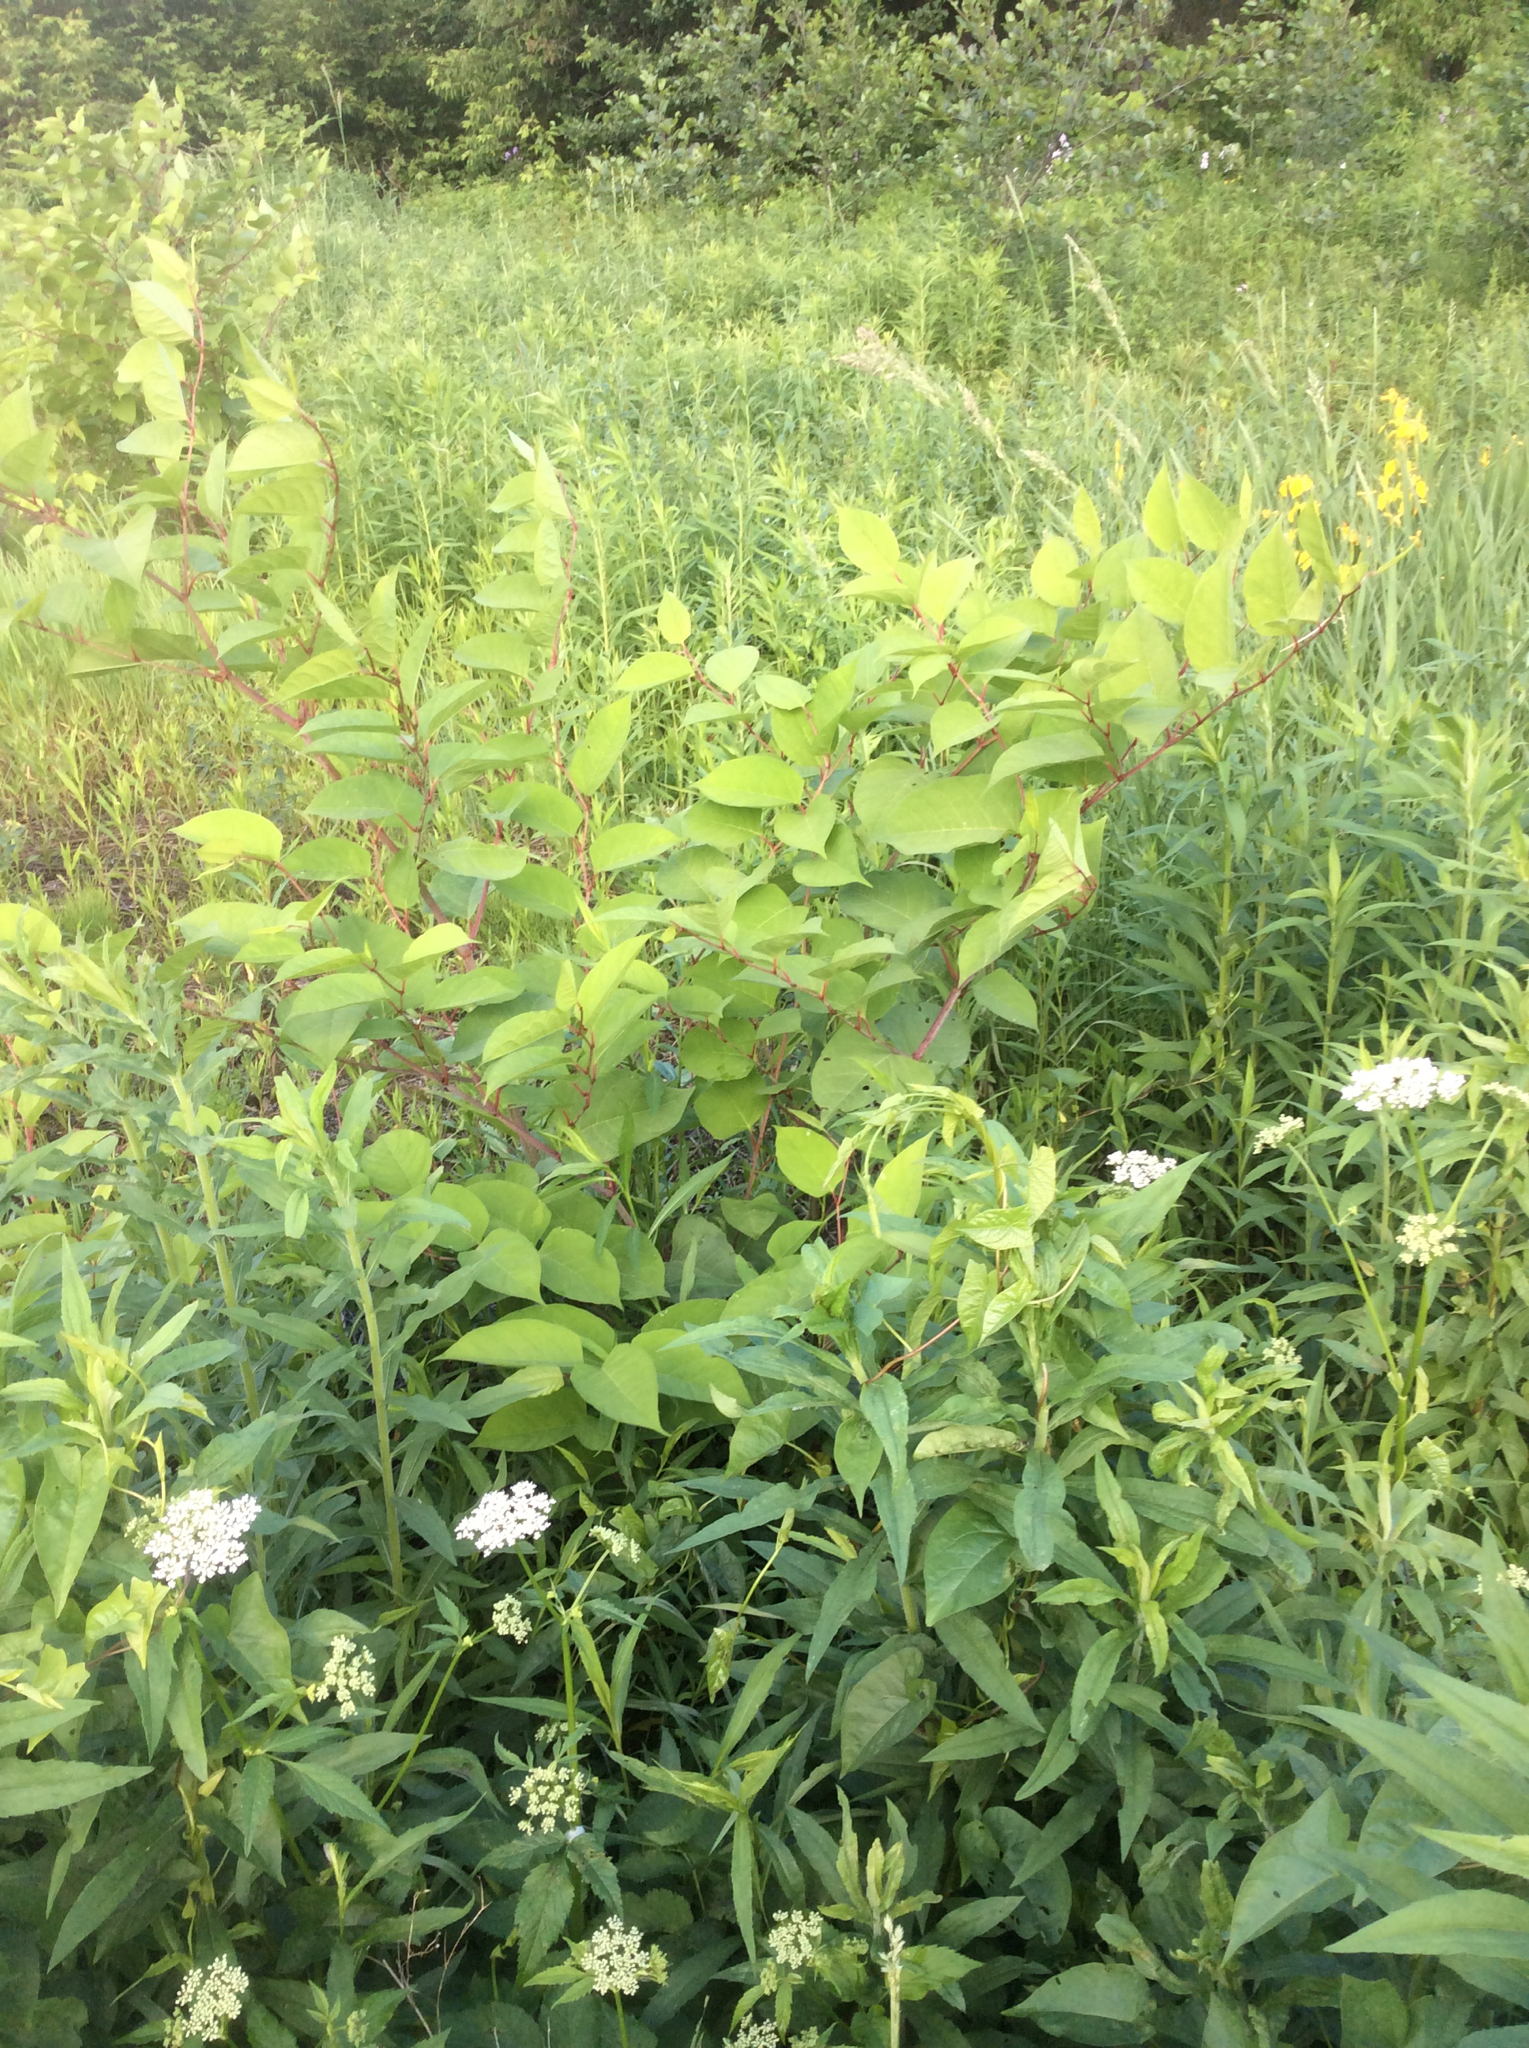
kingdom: Plantae
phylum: Tracheophyta
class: Magnoliopsida
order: Caryophyllales
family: Polygonaceae
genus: Reynoutria
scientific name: Reynoutria japonica
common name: Japanese knotweed
